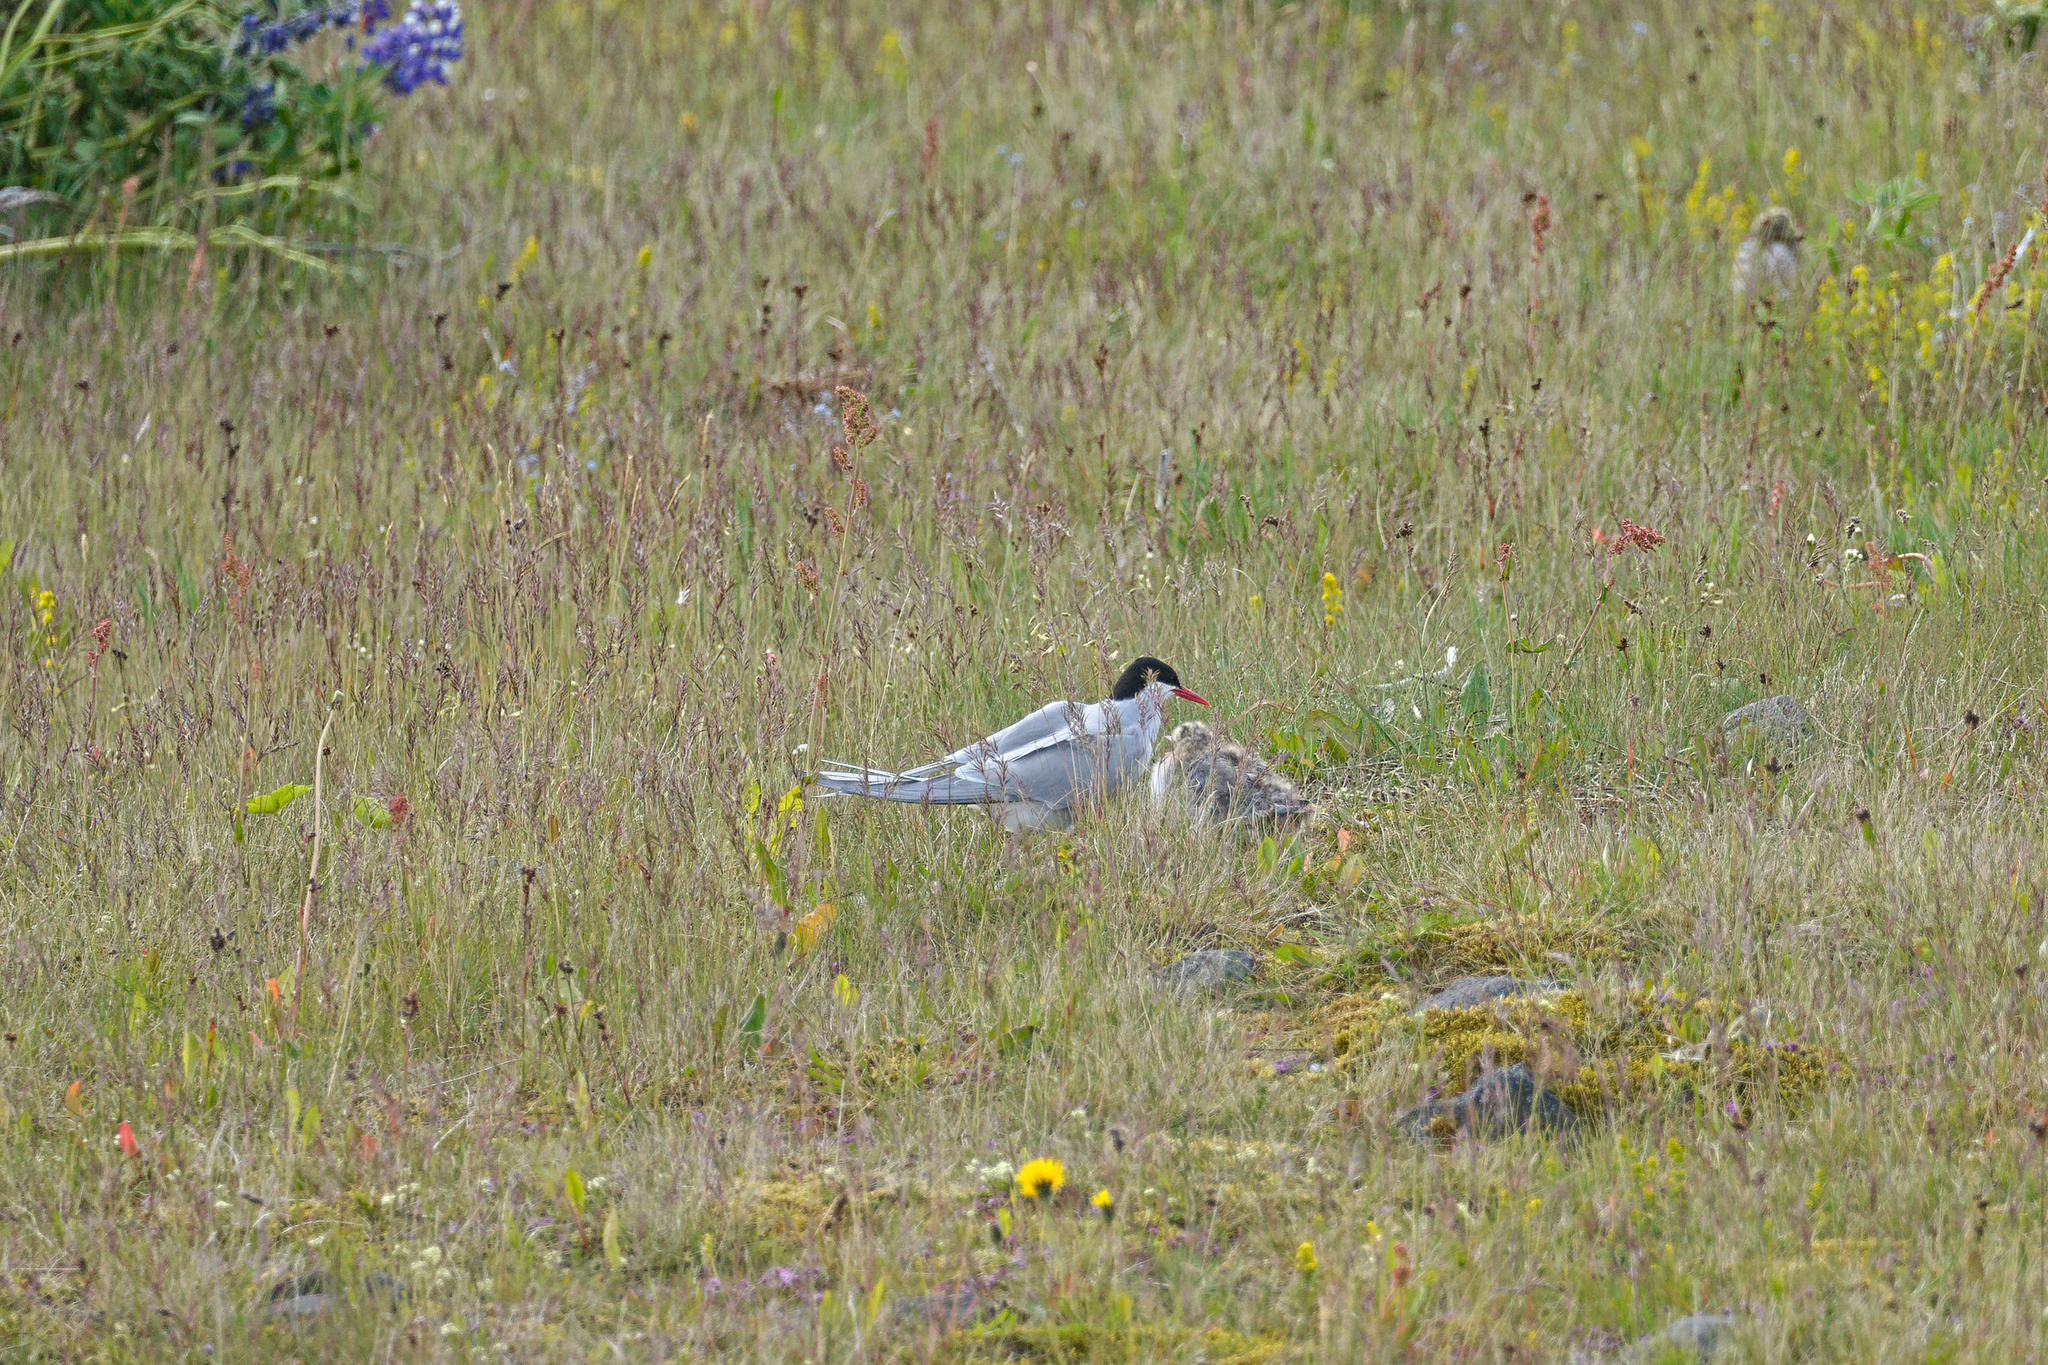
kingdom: Animalia
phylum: Chordata
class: Aves
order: Charadriiformes
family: Laridae
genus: Sterna
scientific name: Sterna paradisaea
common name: Arctic tern
